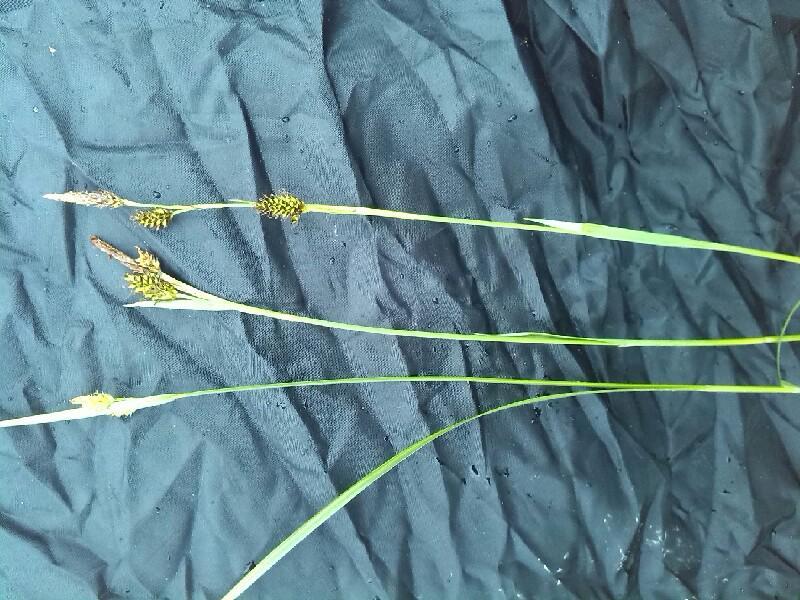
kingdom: Plantae
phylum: Tracheophyta
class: Liliopsida
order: Poales
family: Cyperaceae
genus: Carex
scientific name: Carex hostiana
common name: Tawny sedge
